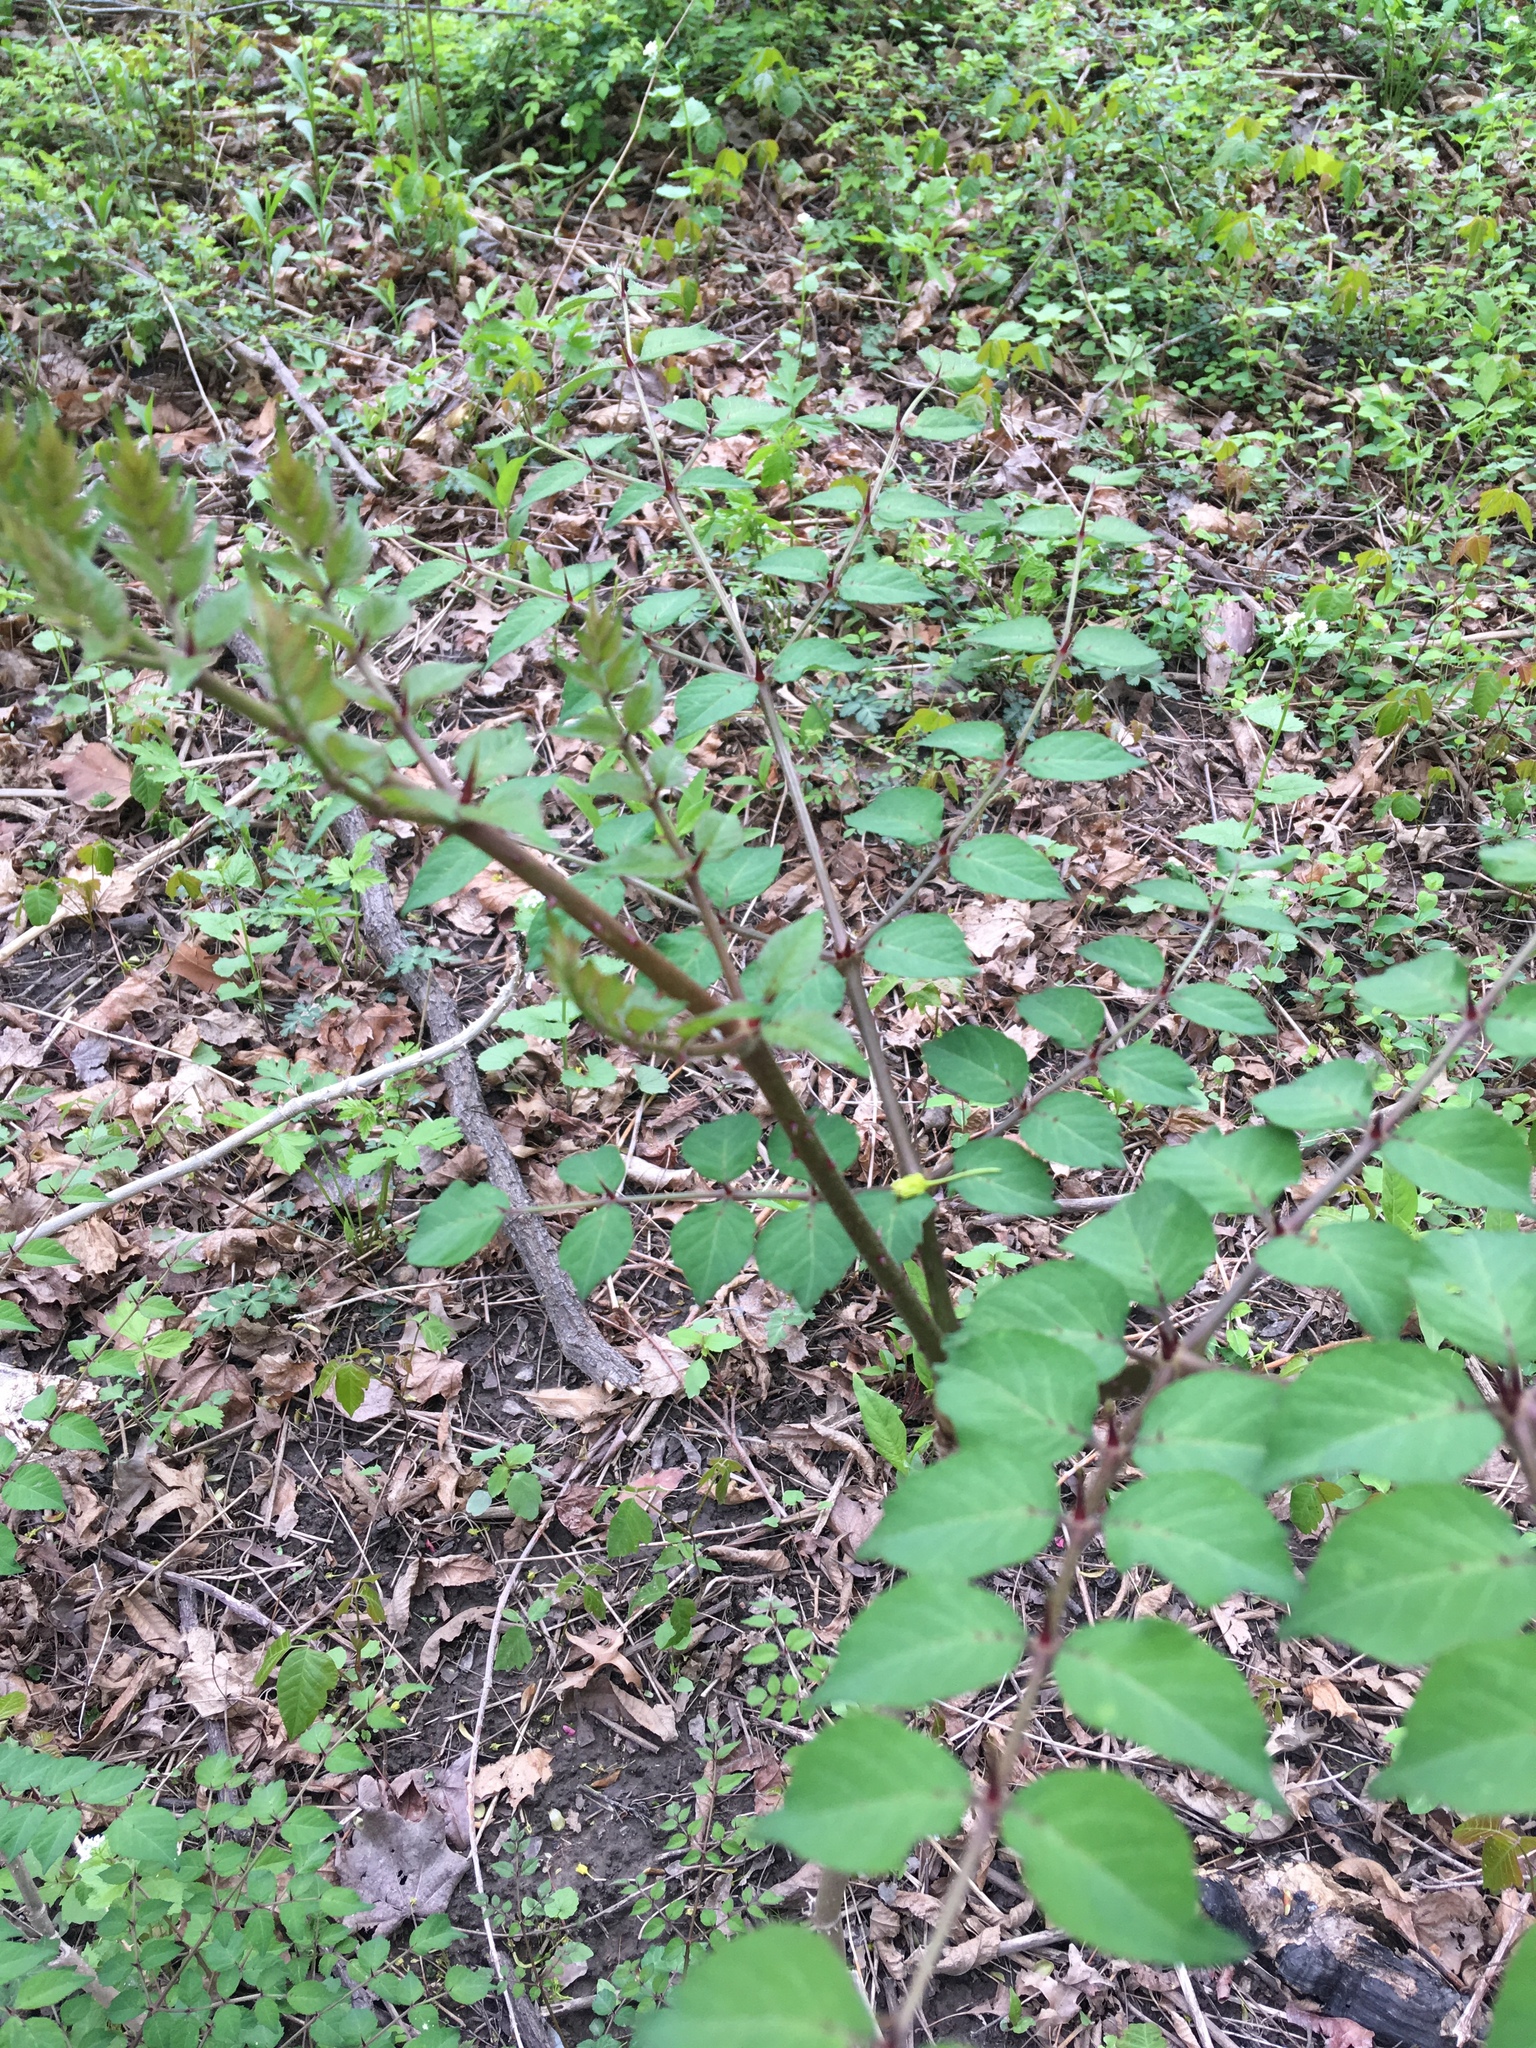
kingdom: Plantae
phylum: Tracheophyta
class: Magnoliopsida
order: Apiales
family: Araliaceae
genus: Aralia
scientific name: Aralia elata
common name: Japanese angelica-tree
